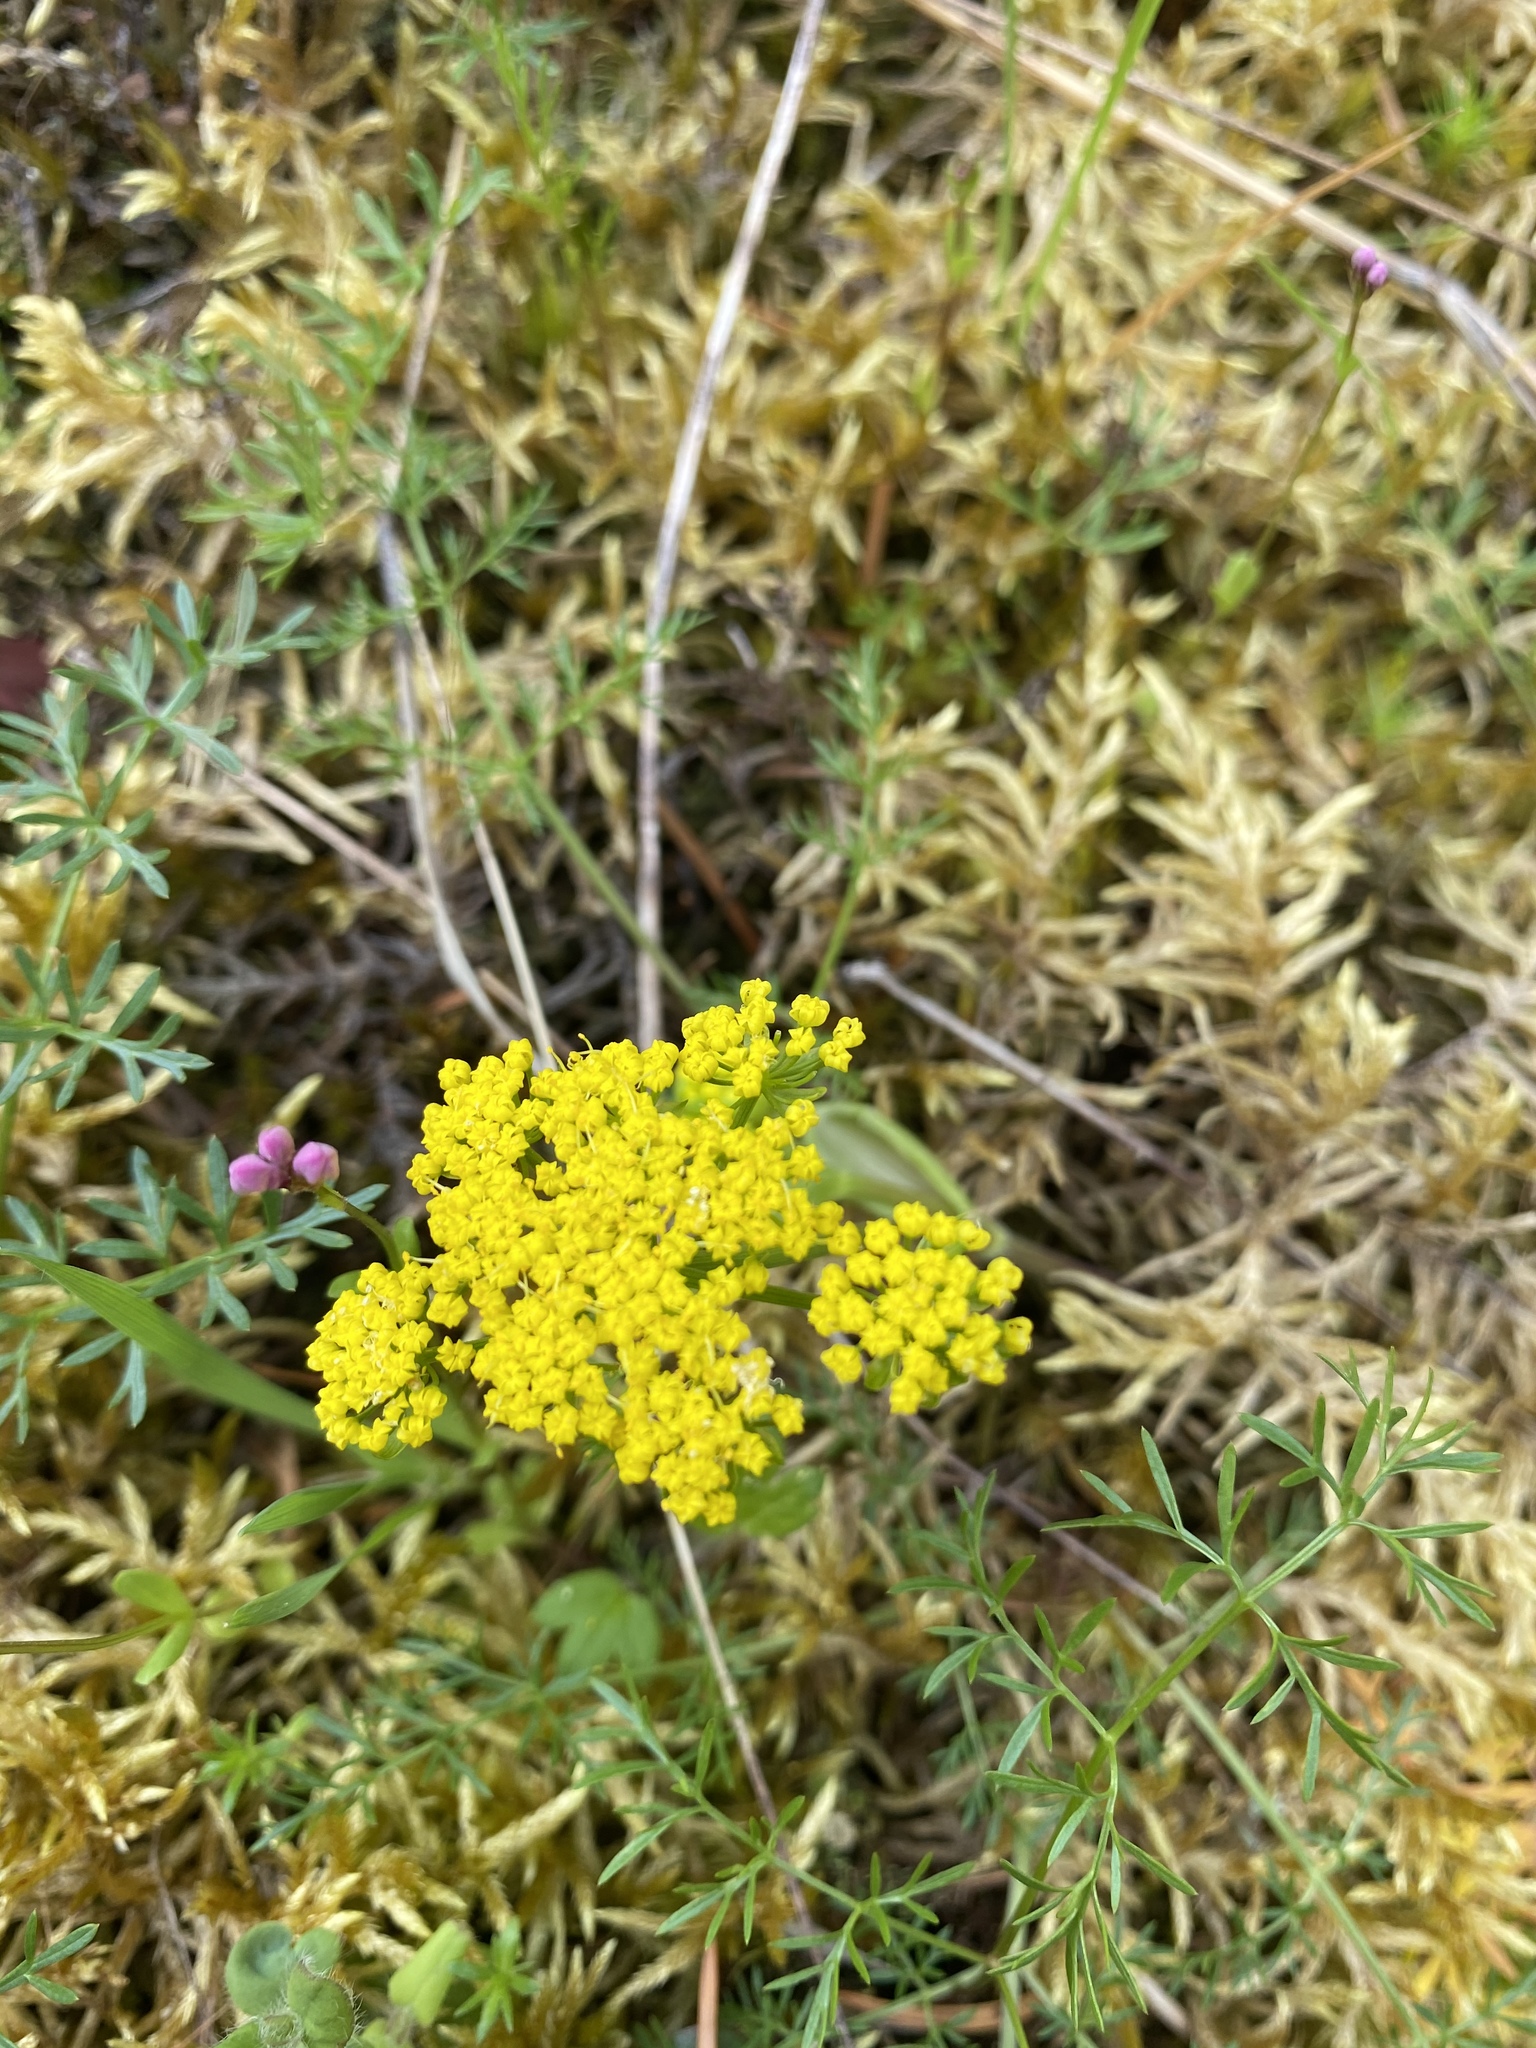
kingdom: Plantae
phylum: Tracheophyta
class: Magnoliopsida
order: Apiales
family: Apiaceae
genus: Lomatium
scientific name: Lomatium utriculatum
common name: Fine-leaf desert-parsley
